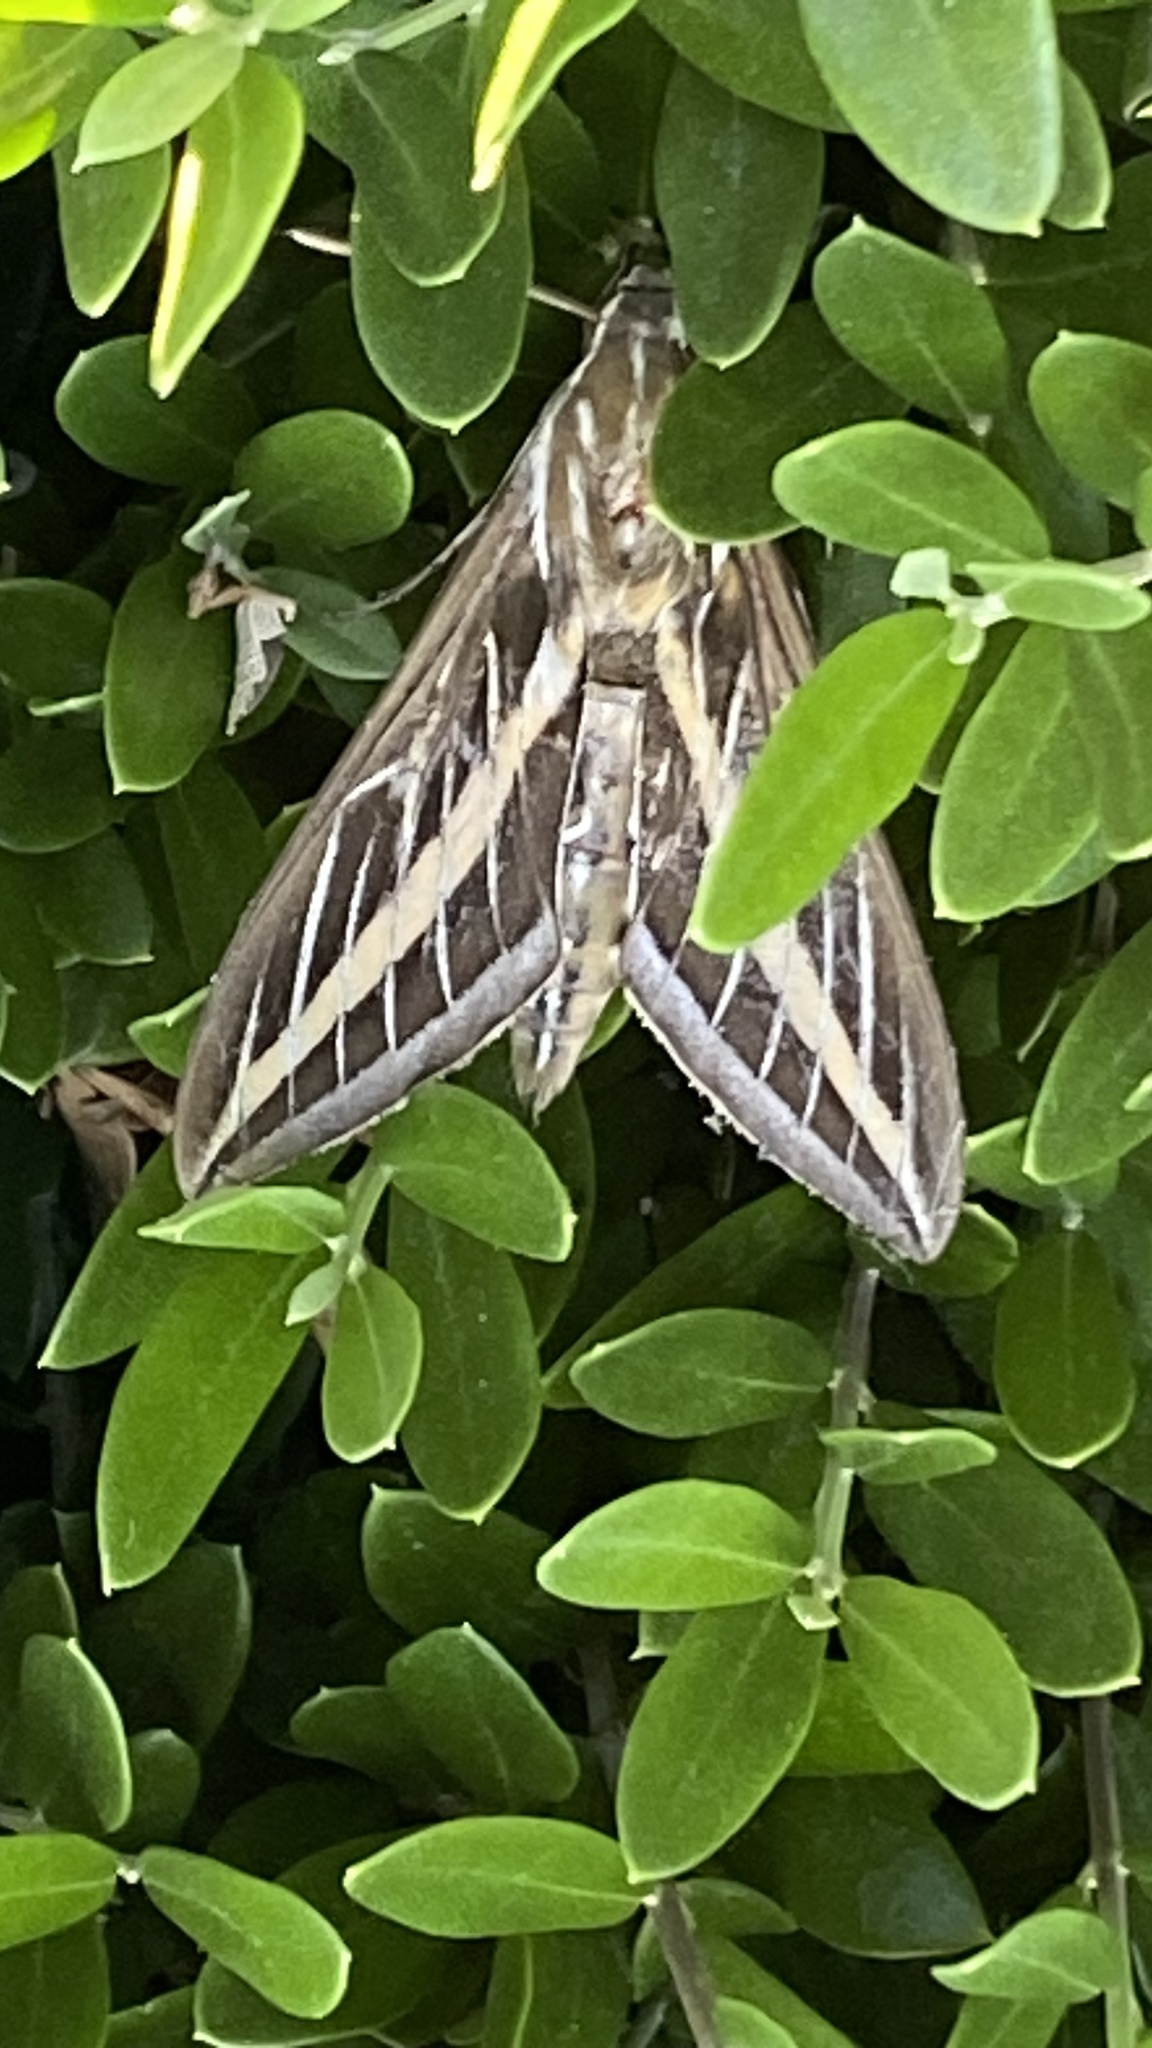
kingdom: Animalia
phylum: Arthropoda
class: Insecta
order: Lepidoptera
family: Sphingidae
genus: Hyles
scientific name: Hyles lineata
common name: White-lined sphinx
